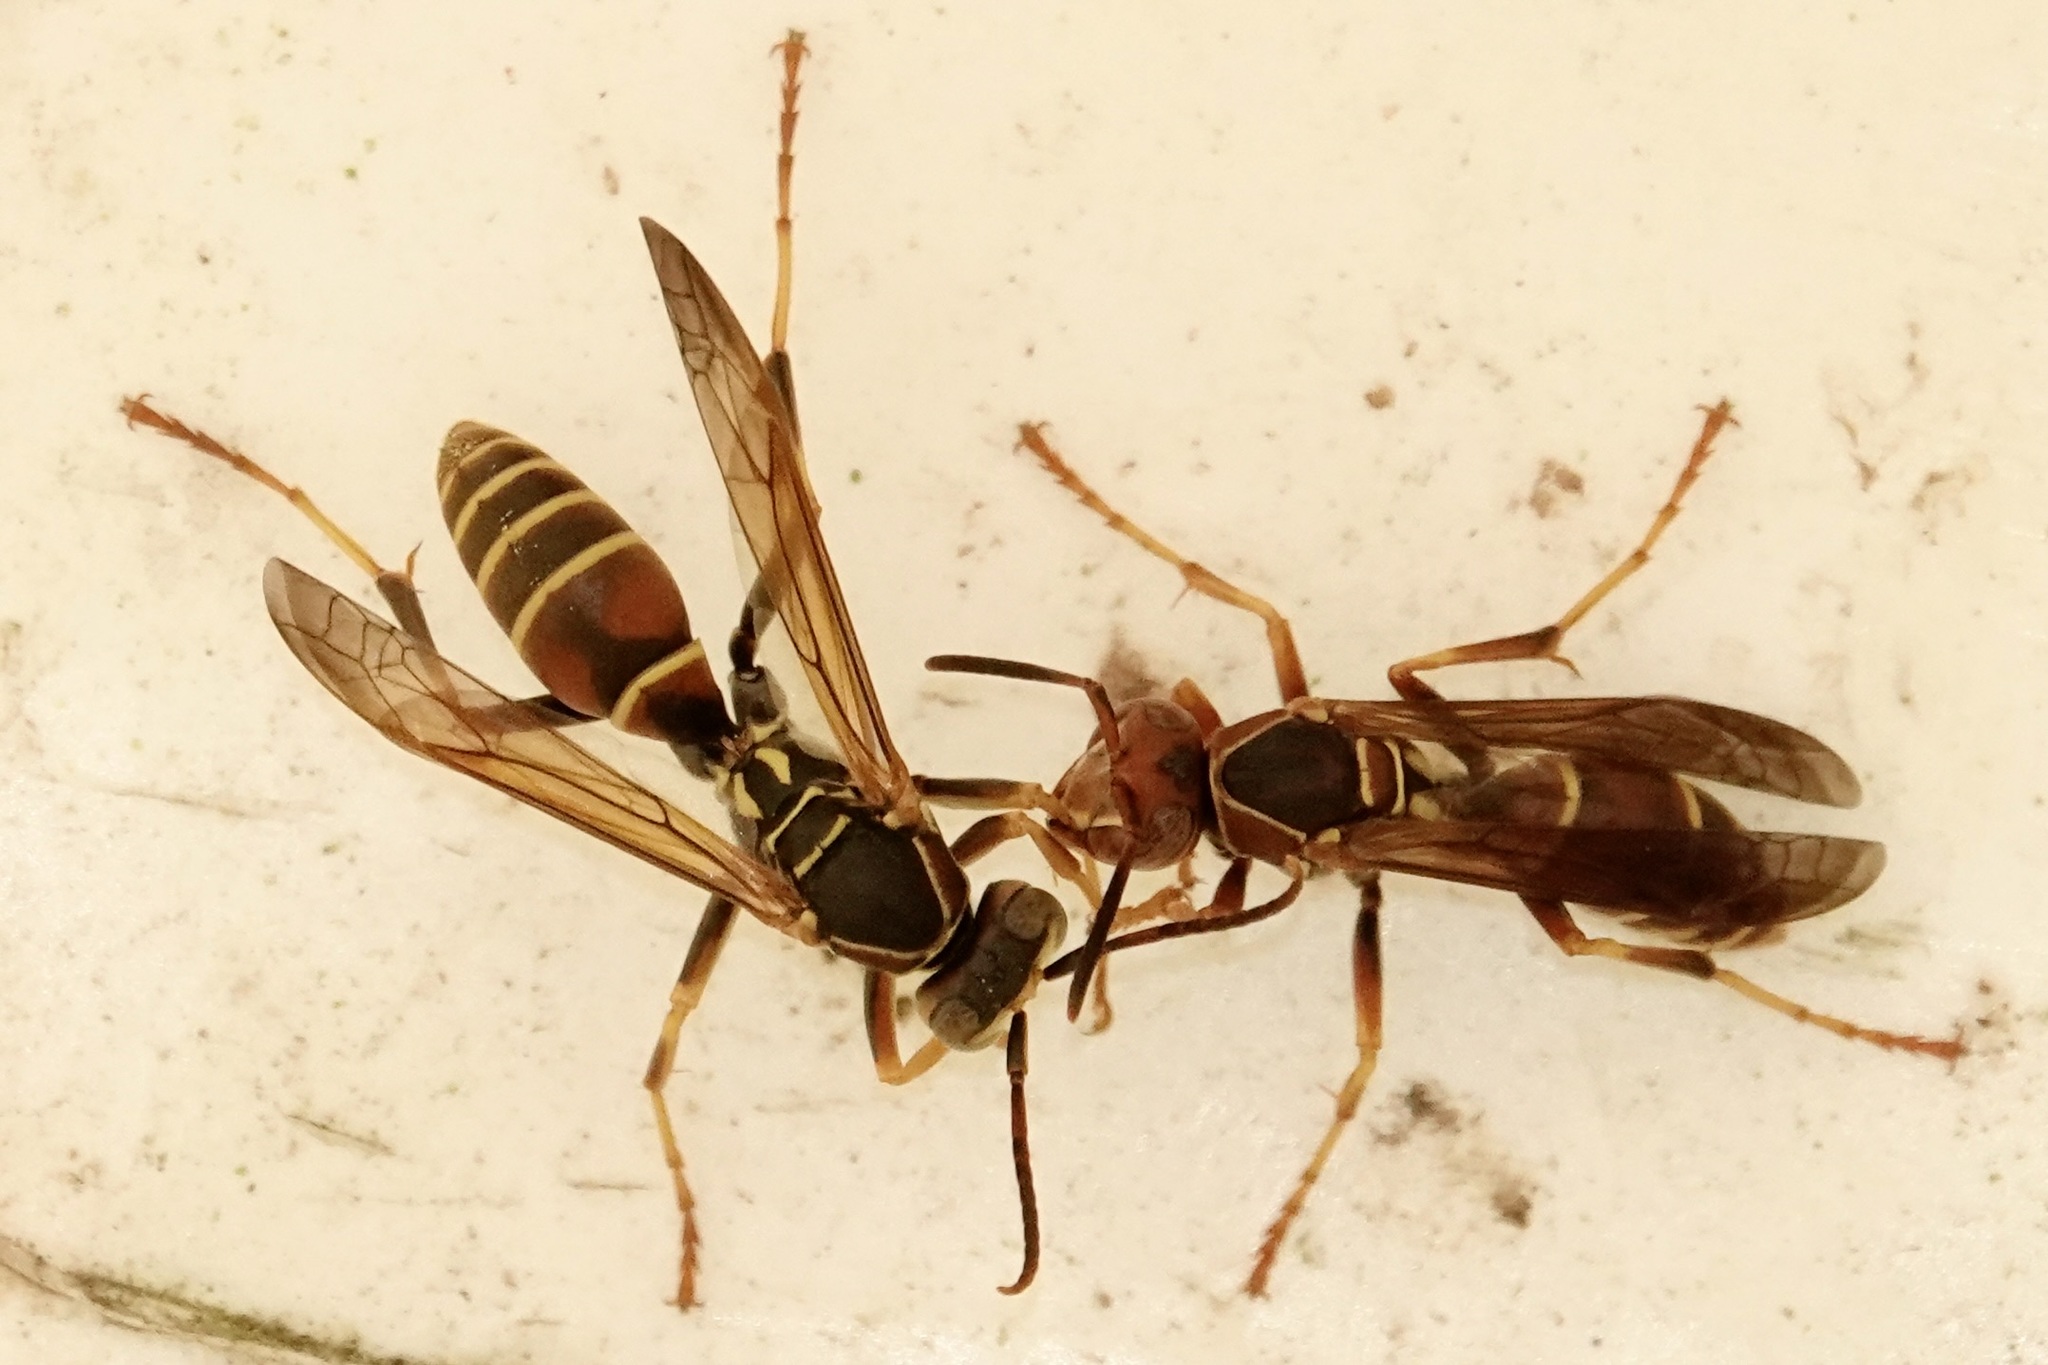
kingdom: Animalia
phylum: Arthropoda
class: Insecta
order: Hymenoptera
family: Eumenidae
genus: Polistes
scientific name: Polistes dorsalis
